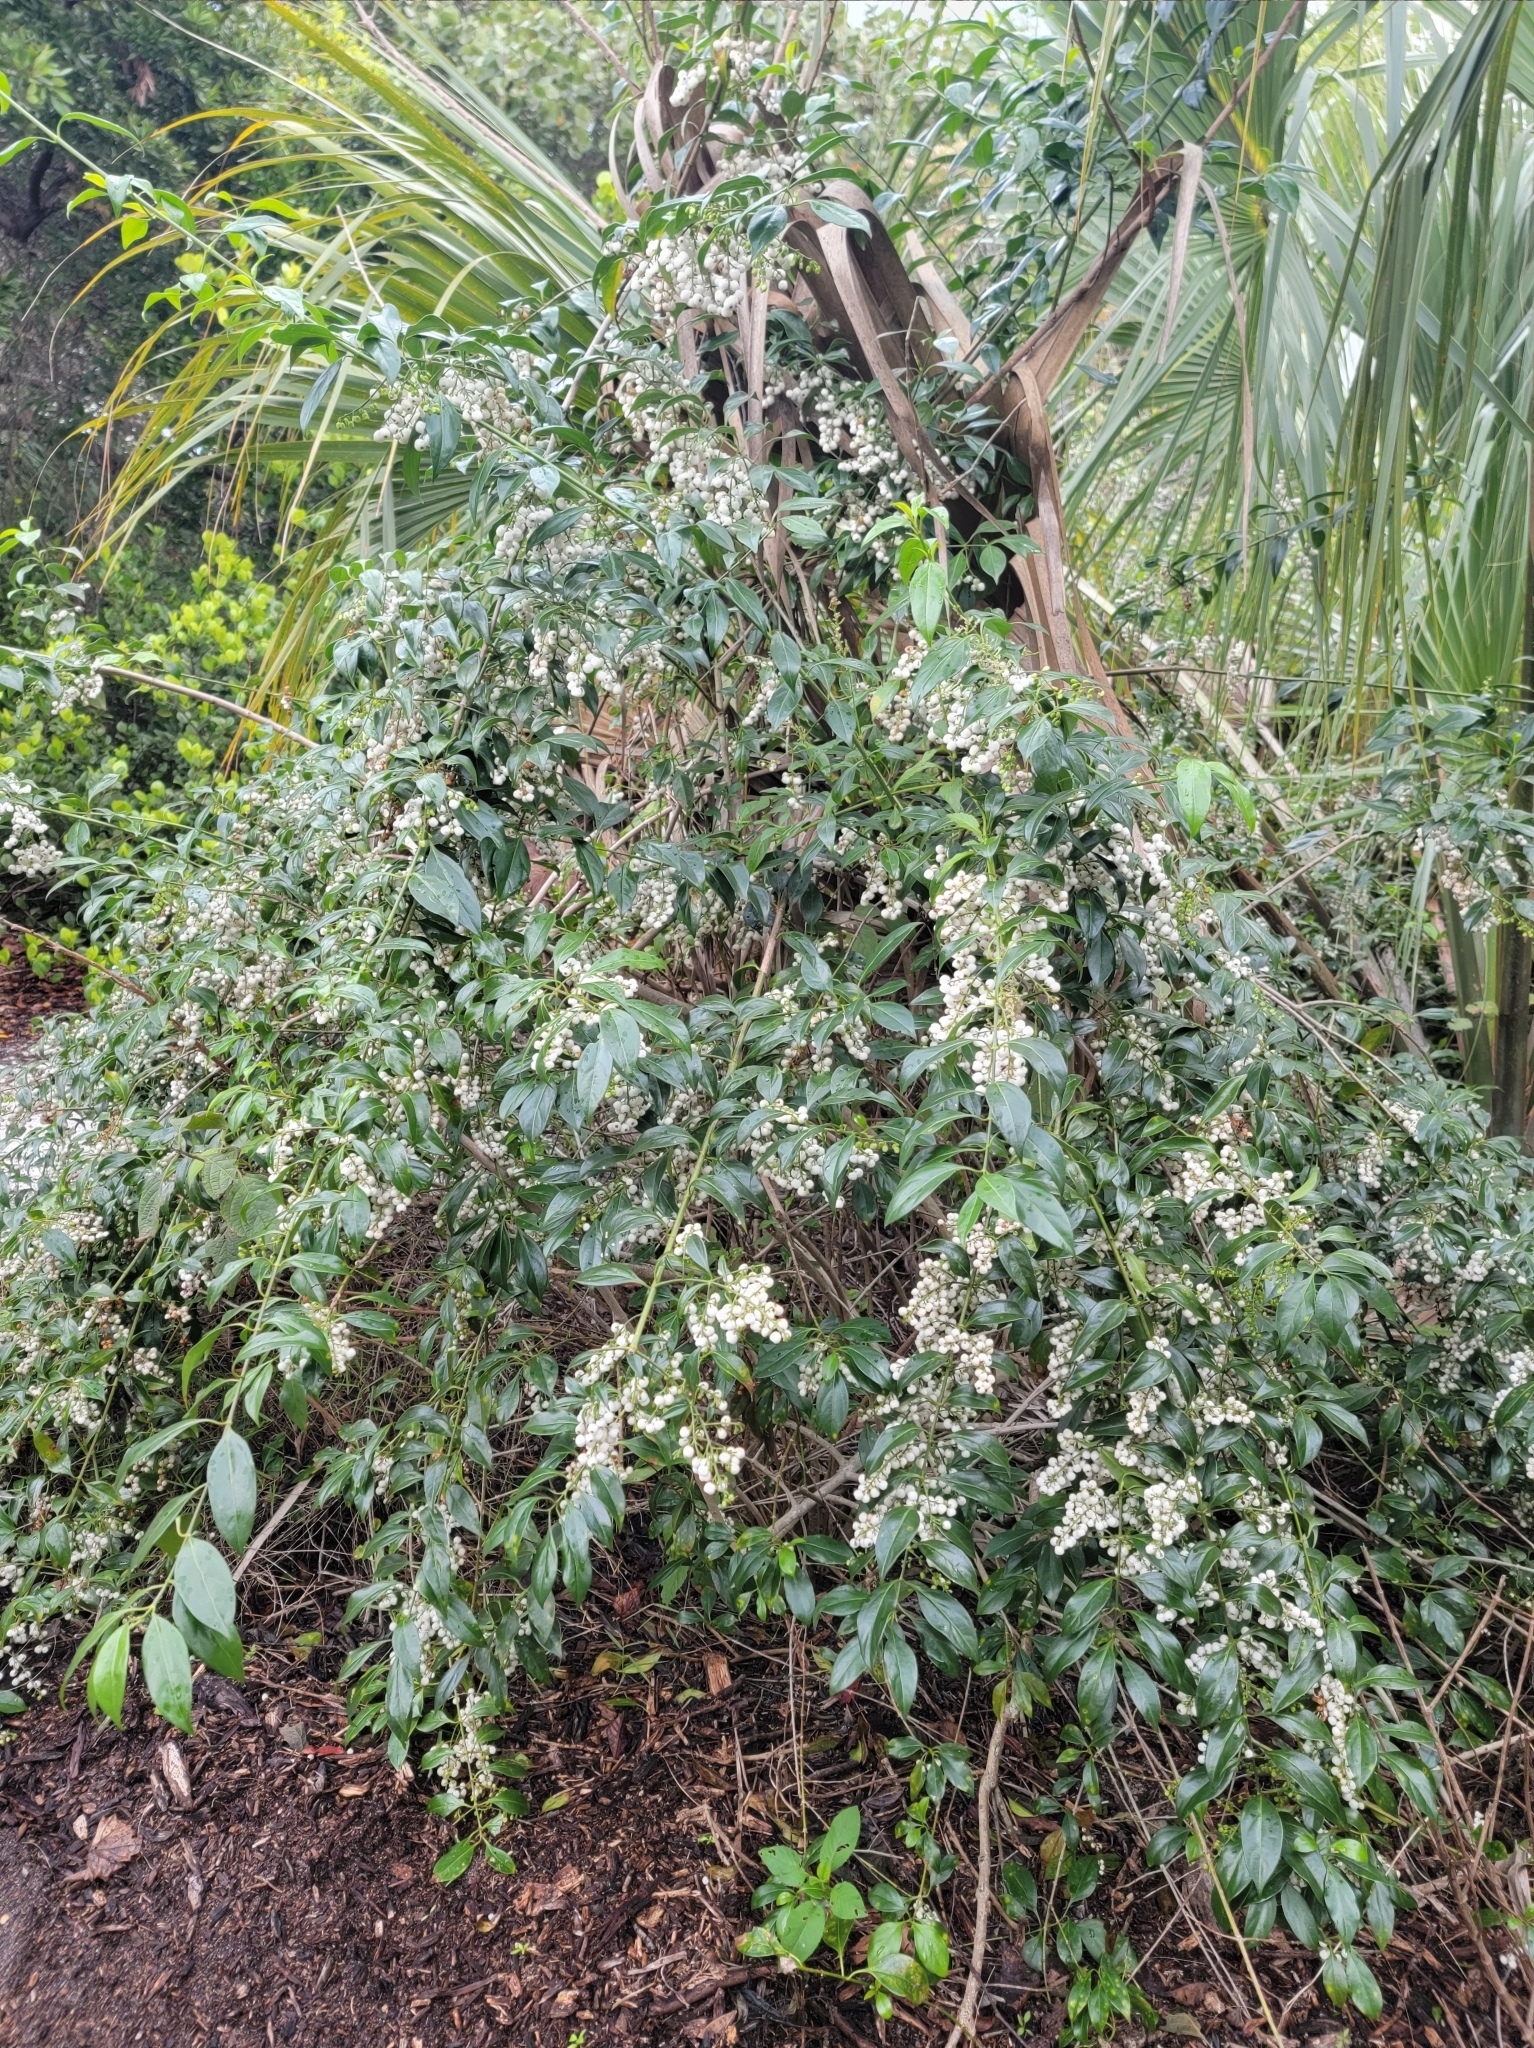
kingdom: Plantae
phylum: Tracheophyta
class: Magnoliopsida
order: Gentianales
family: Rubiaceae
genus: Chiococca
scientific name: Chiococca alba
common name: Snowberry
